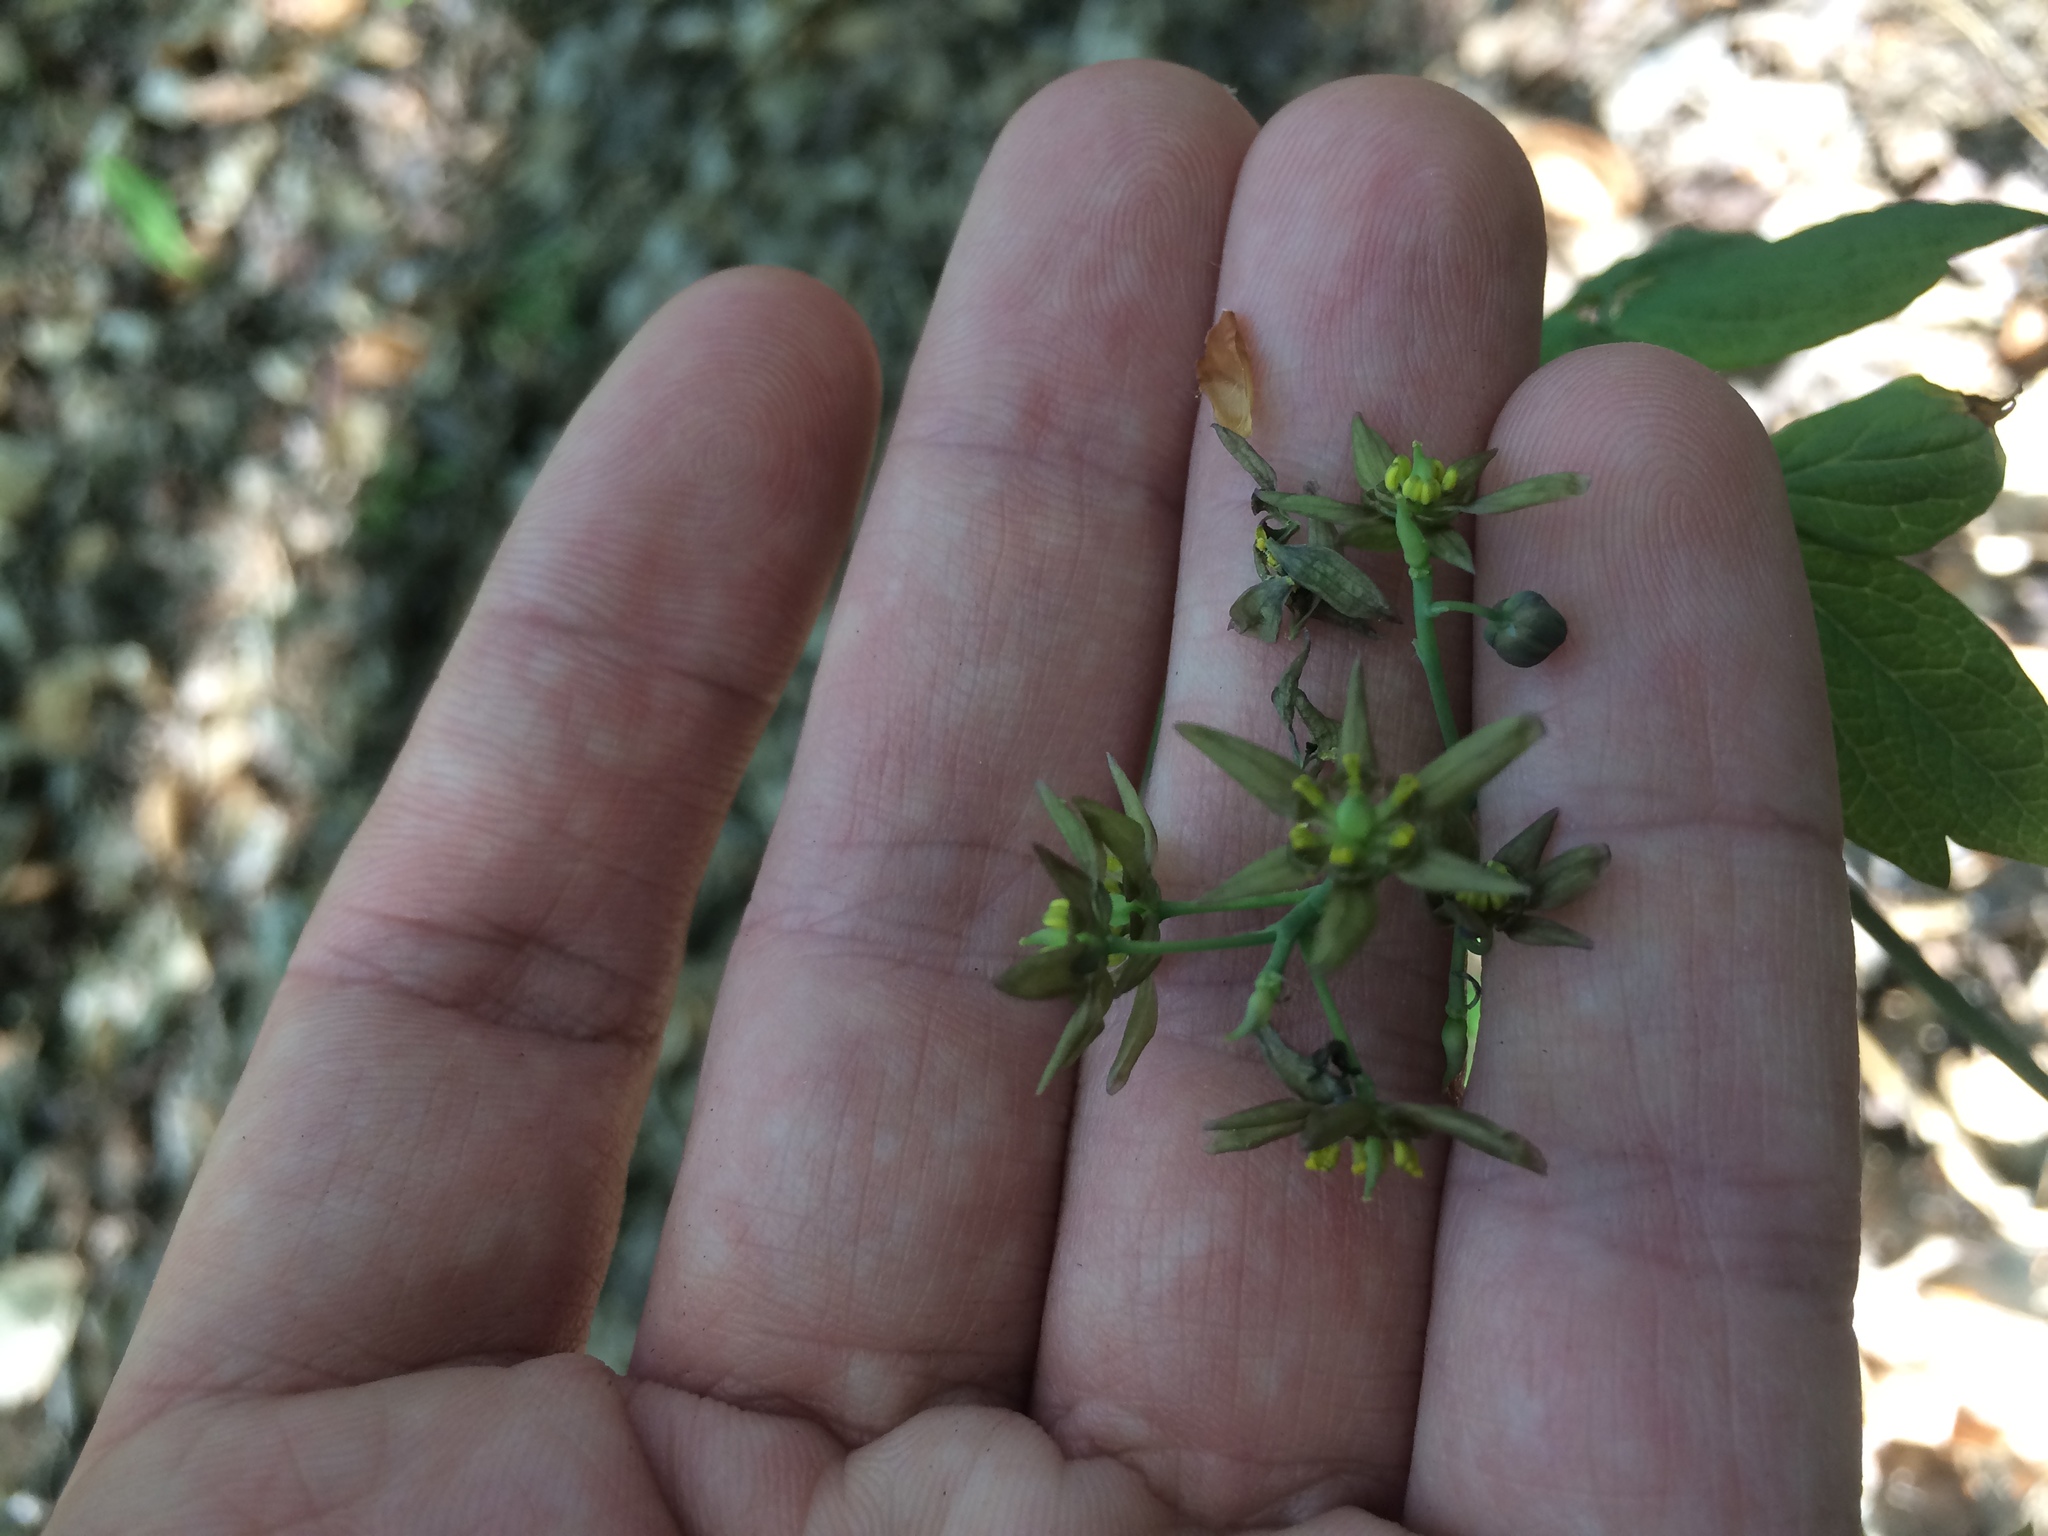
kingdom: Plantae
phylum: Tracheophyta
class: Magnoliopsida
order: Ranunculales
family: Berberidaceae
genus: Caulophyllum
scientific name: Caulophyllum giganteum
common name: Blue cohosh
